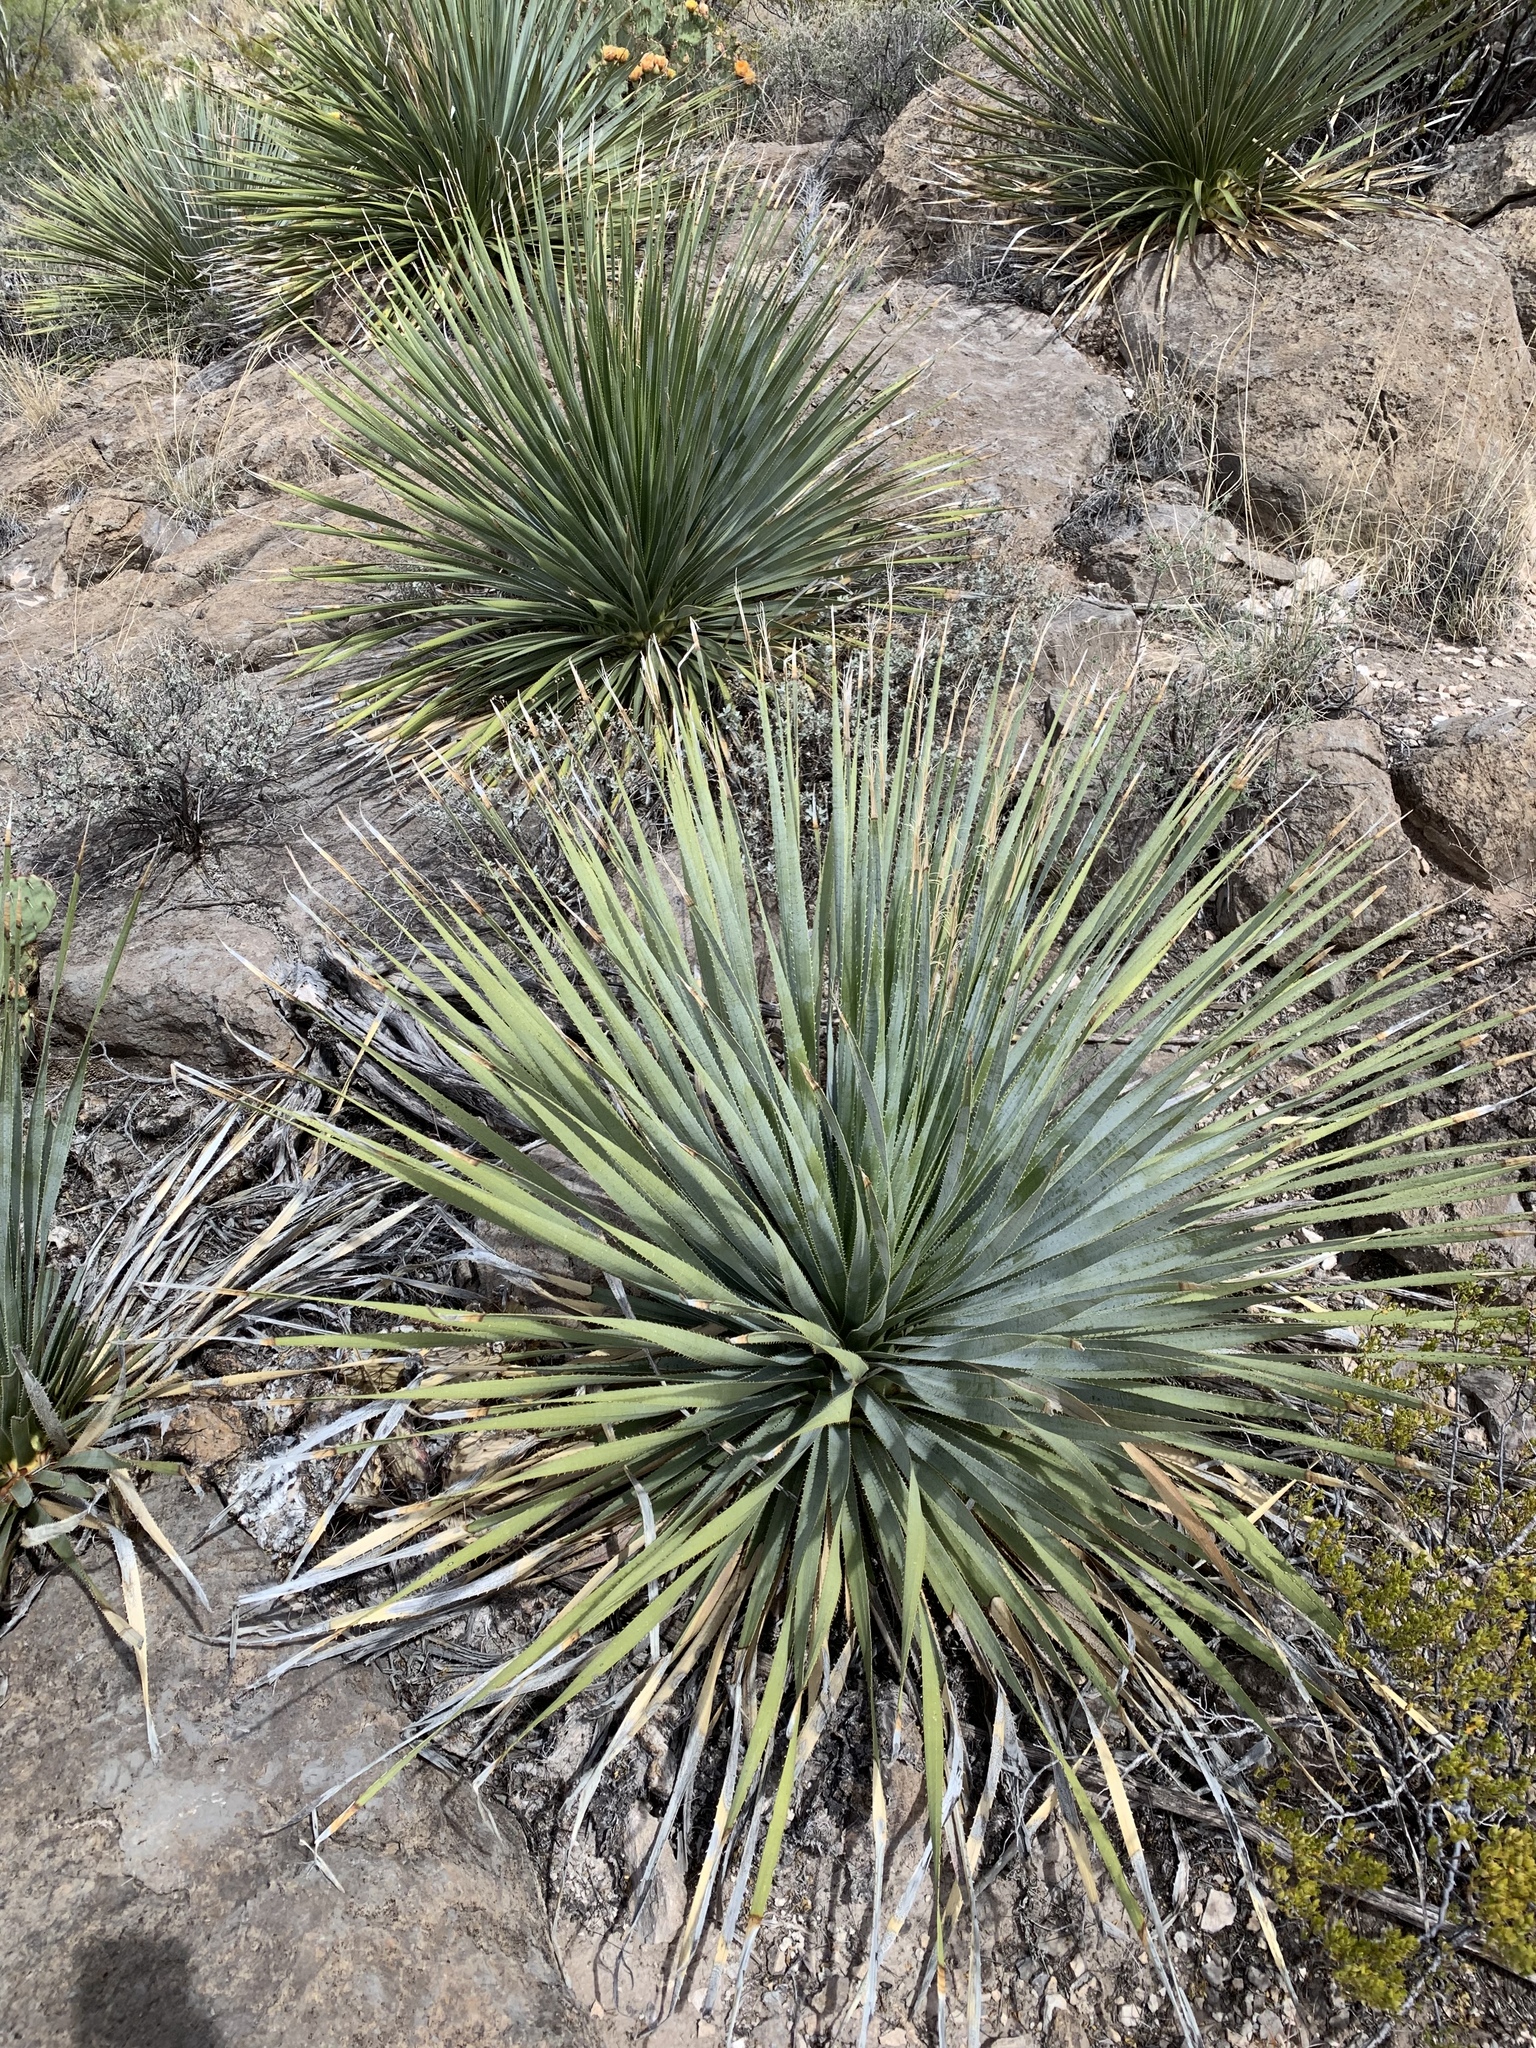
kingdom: Plantae
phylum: Tracheophyta
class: Liliopsida
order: Asparagales
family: Asparagaceae
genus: Dasylirion
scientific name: Dasylirion wheeleri
